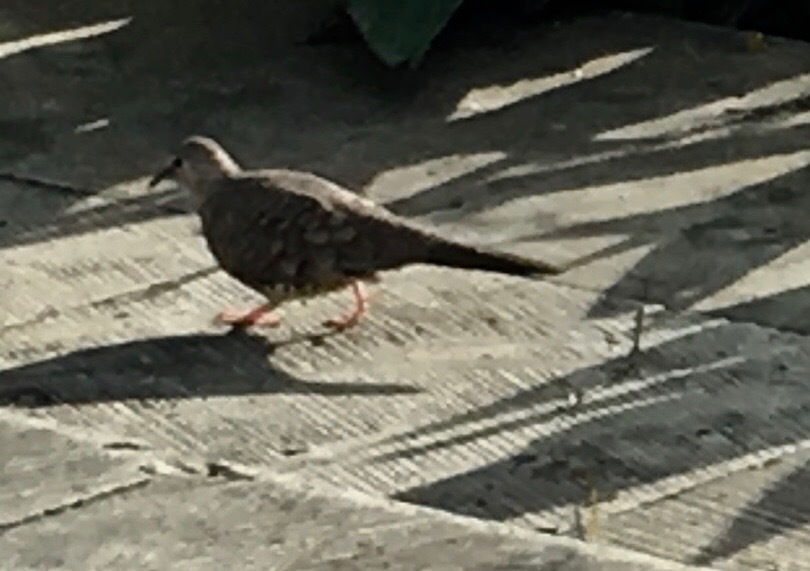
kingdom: Animalia
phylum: Chordata
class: Aves
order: Columbiformes
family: Columbidae
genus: Columbina
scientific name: Columbina inca
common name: Inca dove
